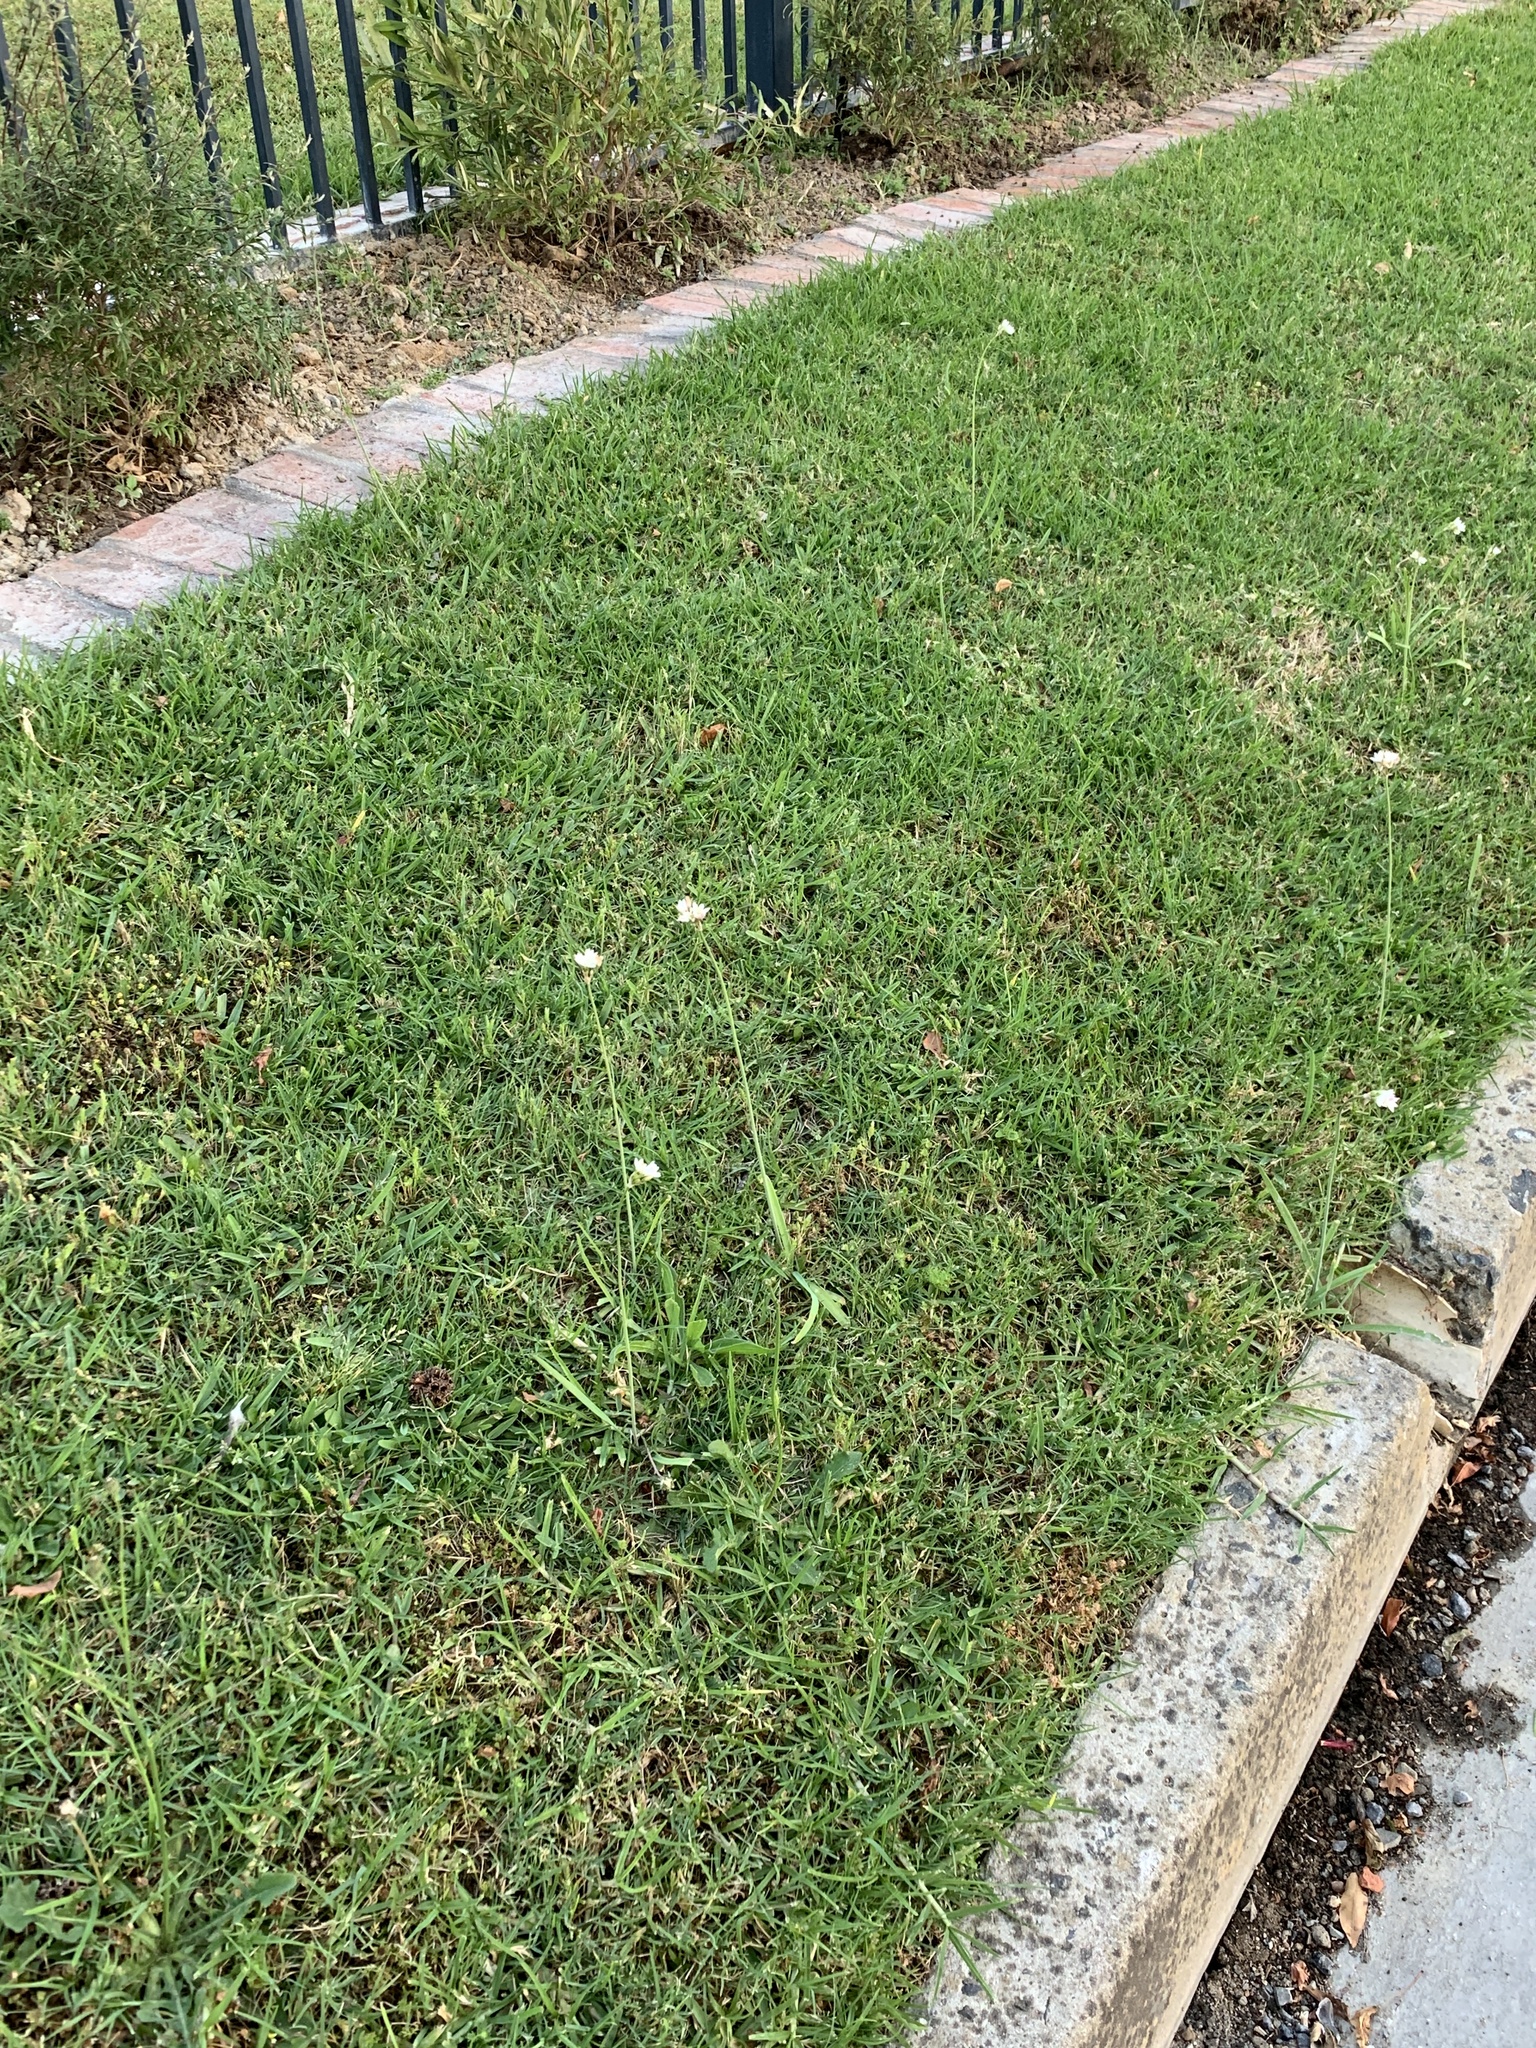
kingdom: Plantae
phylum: Tracheophyta
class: Liliopsida
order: Asparagales
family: Amaryllidaceae
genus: Nothoscordum
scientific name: Nothoscordum gracile
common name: Slender false garlic
